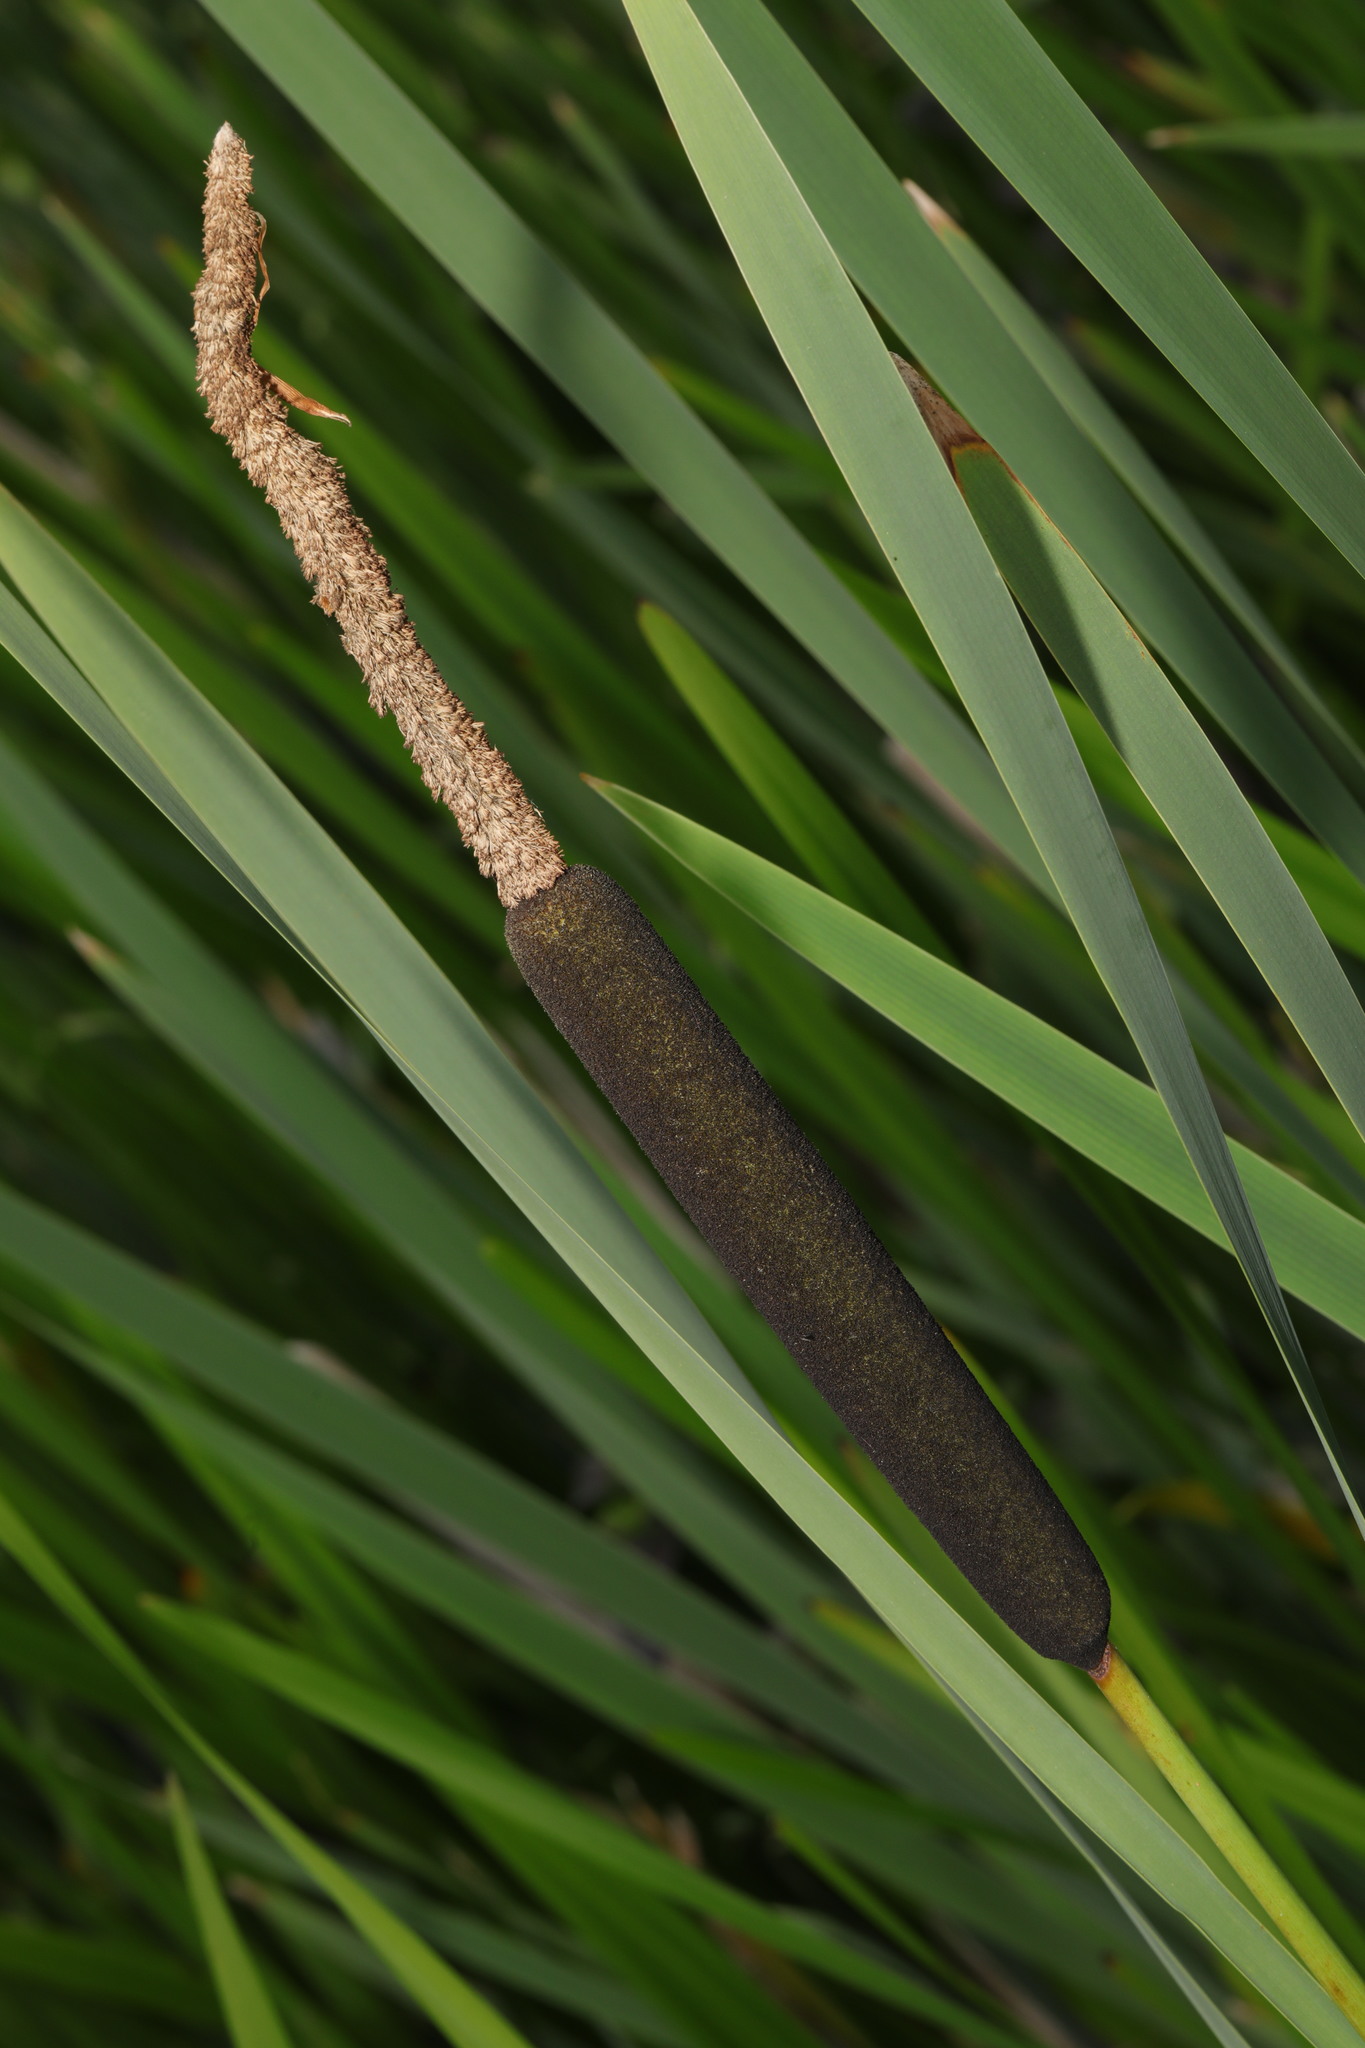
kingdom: Plantae
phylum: Tracheophyta
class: Liliopsida
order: Poales
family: Typhaceae
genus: Typha
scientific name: Typha latifolia
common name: Broadleaf cattail
